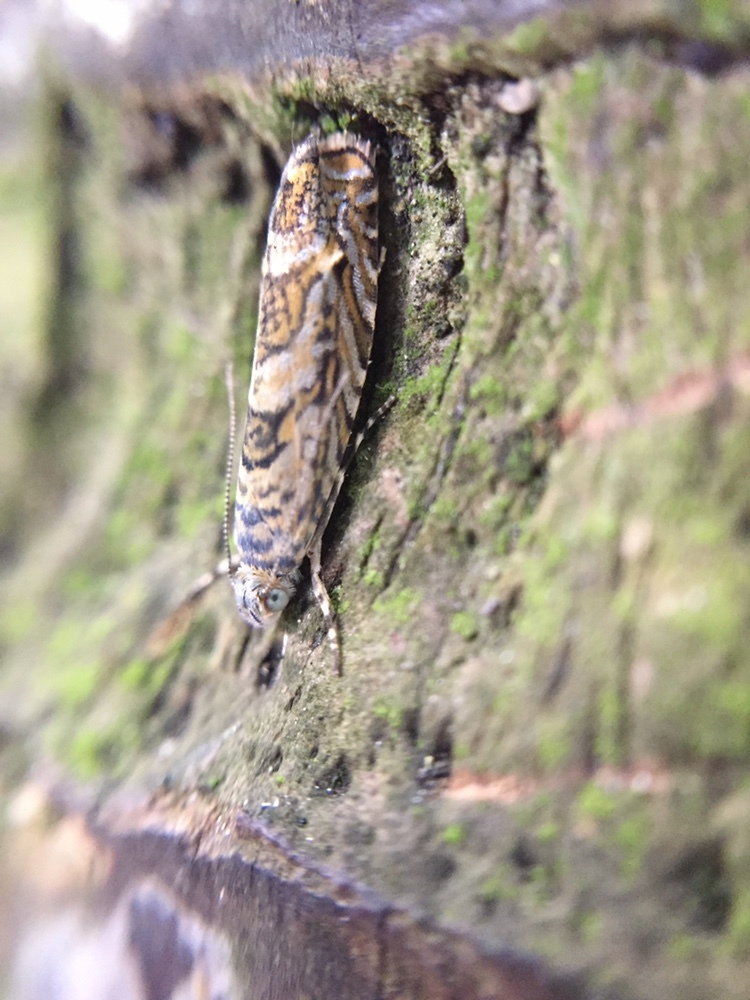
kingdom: Animalia
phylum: Arthropoda
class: Insecta
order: Lepidoptera
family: Plutellidae
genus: Doxophyrtis
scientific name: Doxophyrtis hydrocosma
